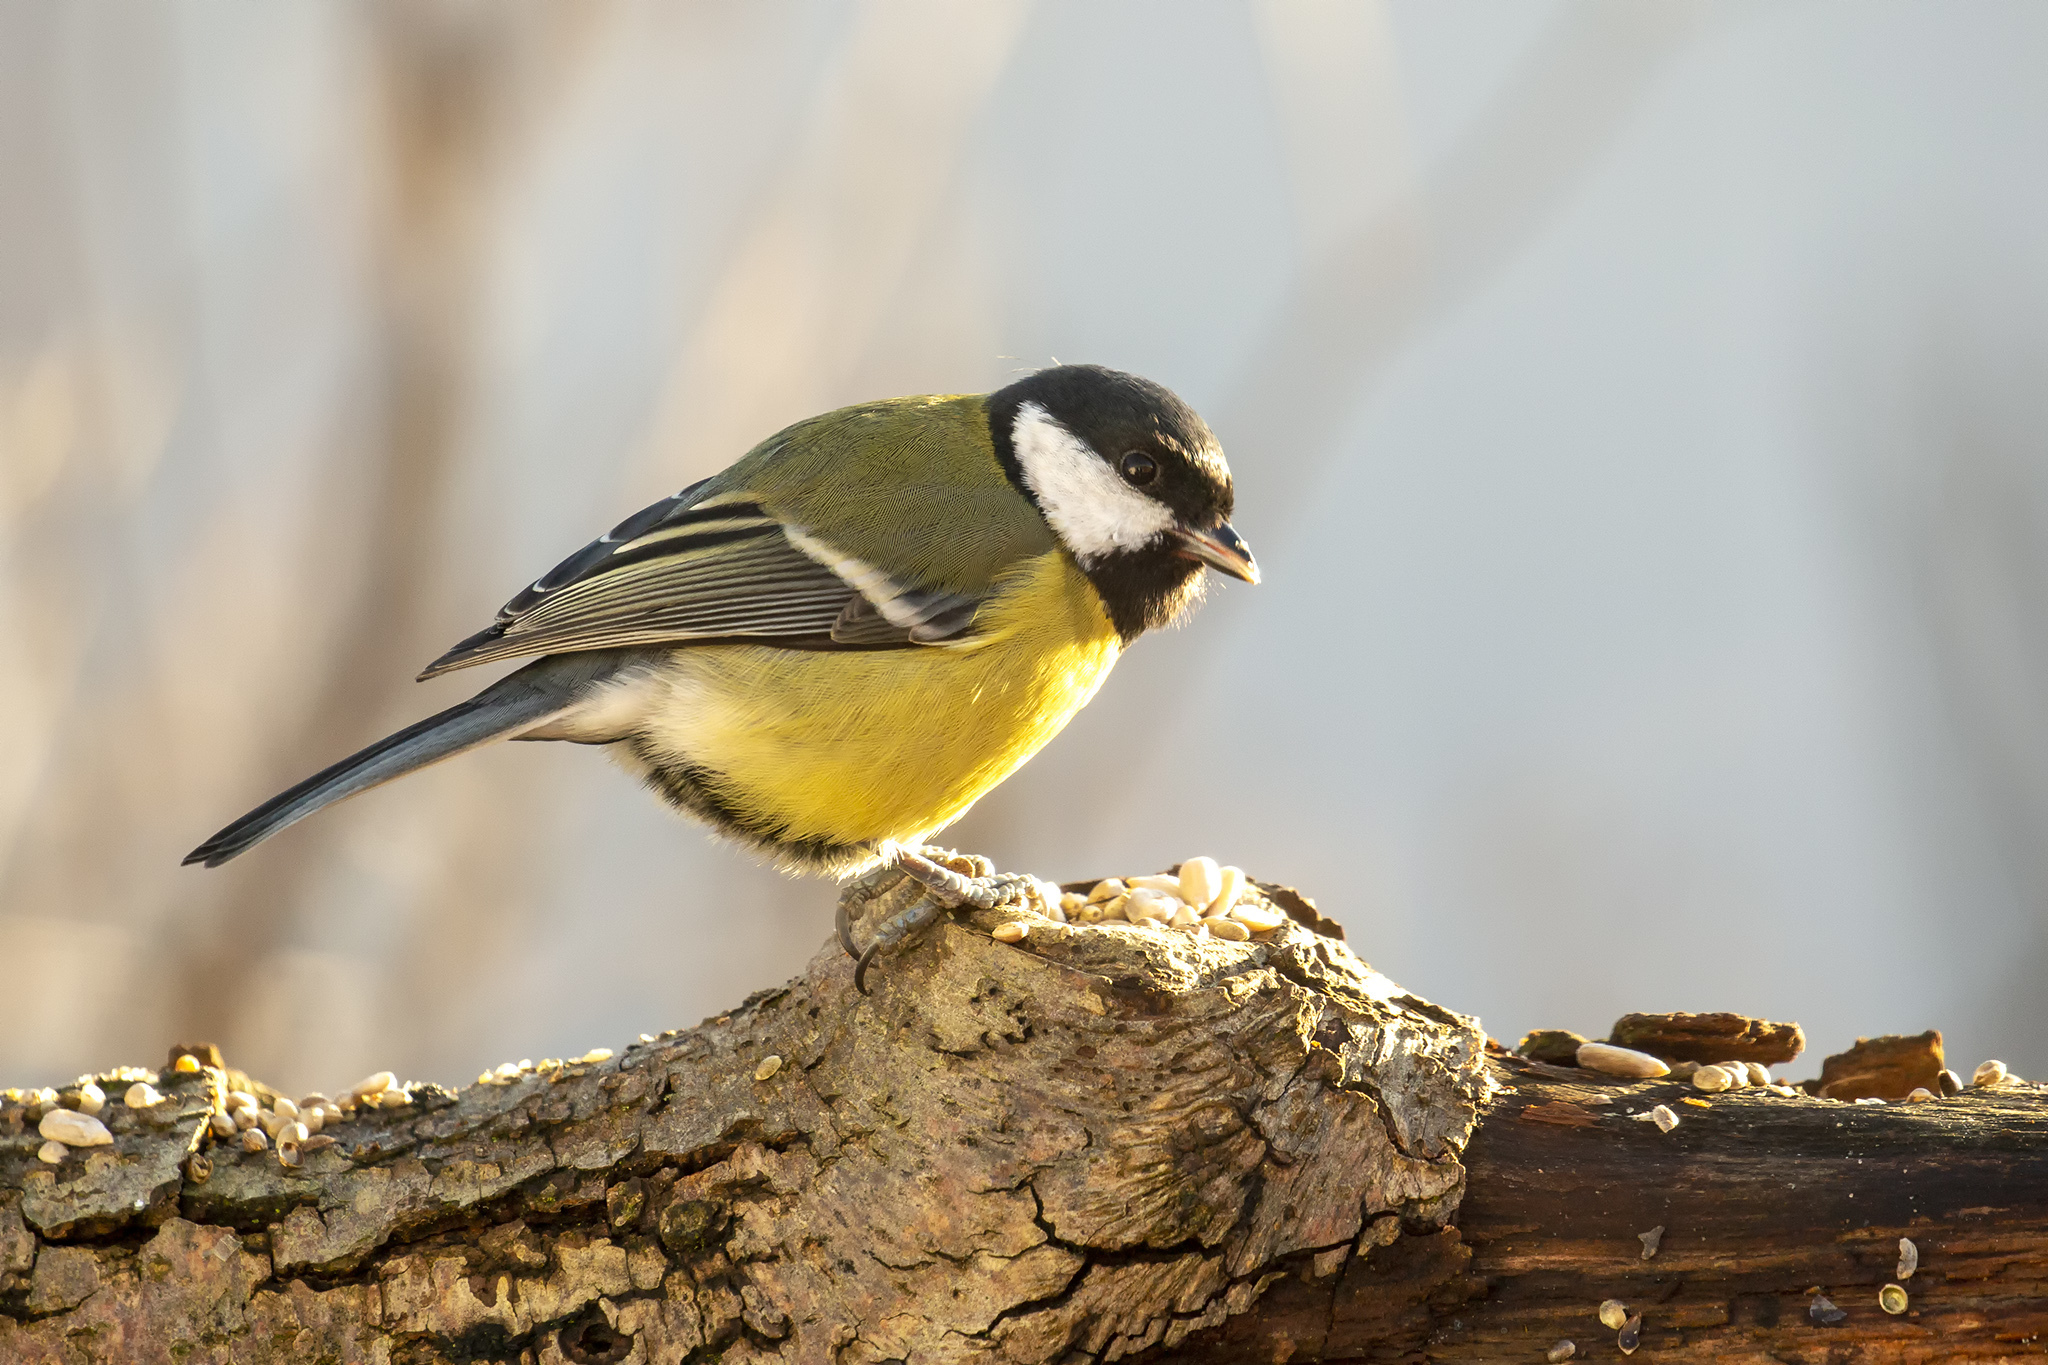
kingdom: Animalia
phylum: Chordata
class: Aves
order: Passeriformes
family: Paridae
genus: Parus
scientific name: Parus major
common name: Great tit
